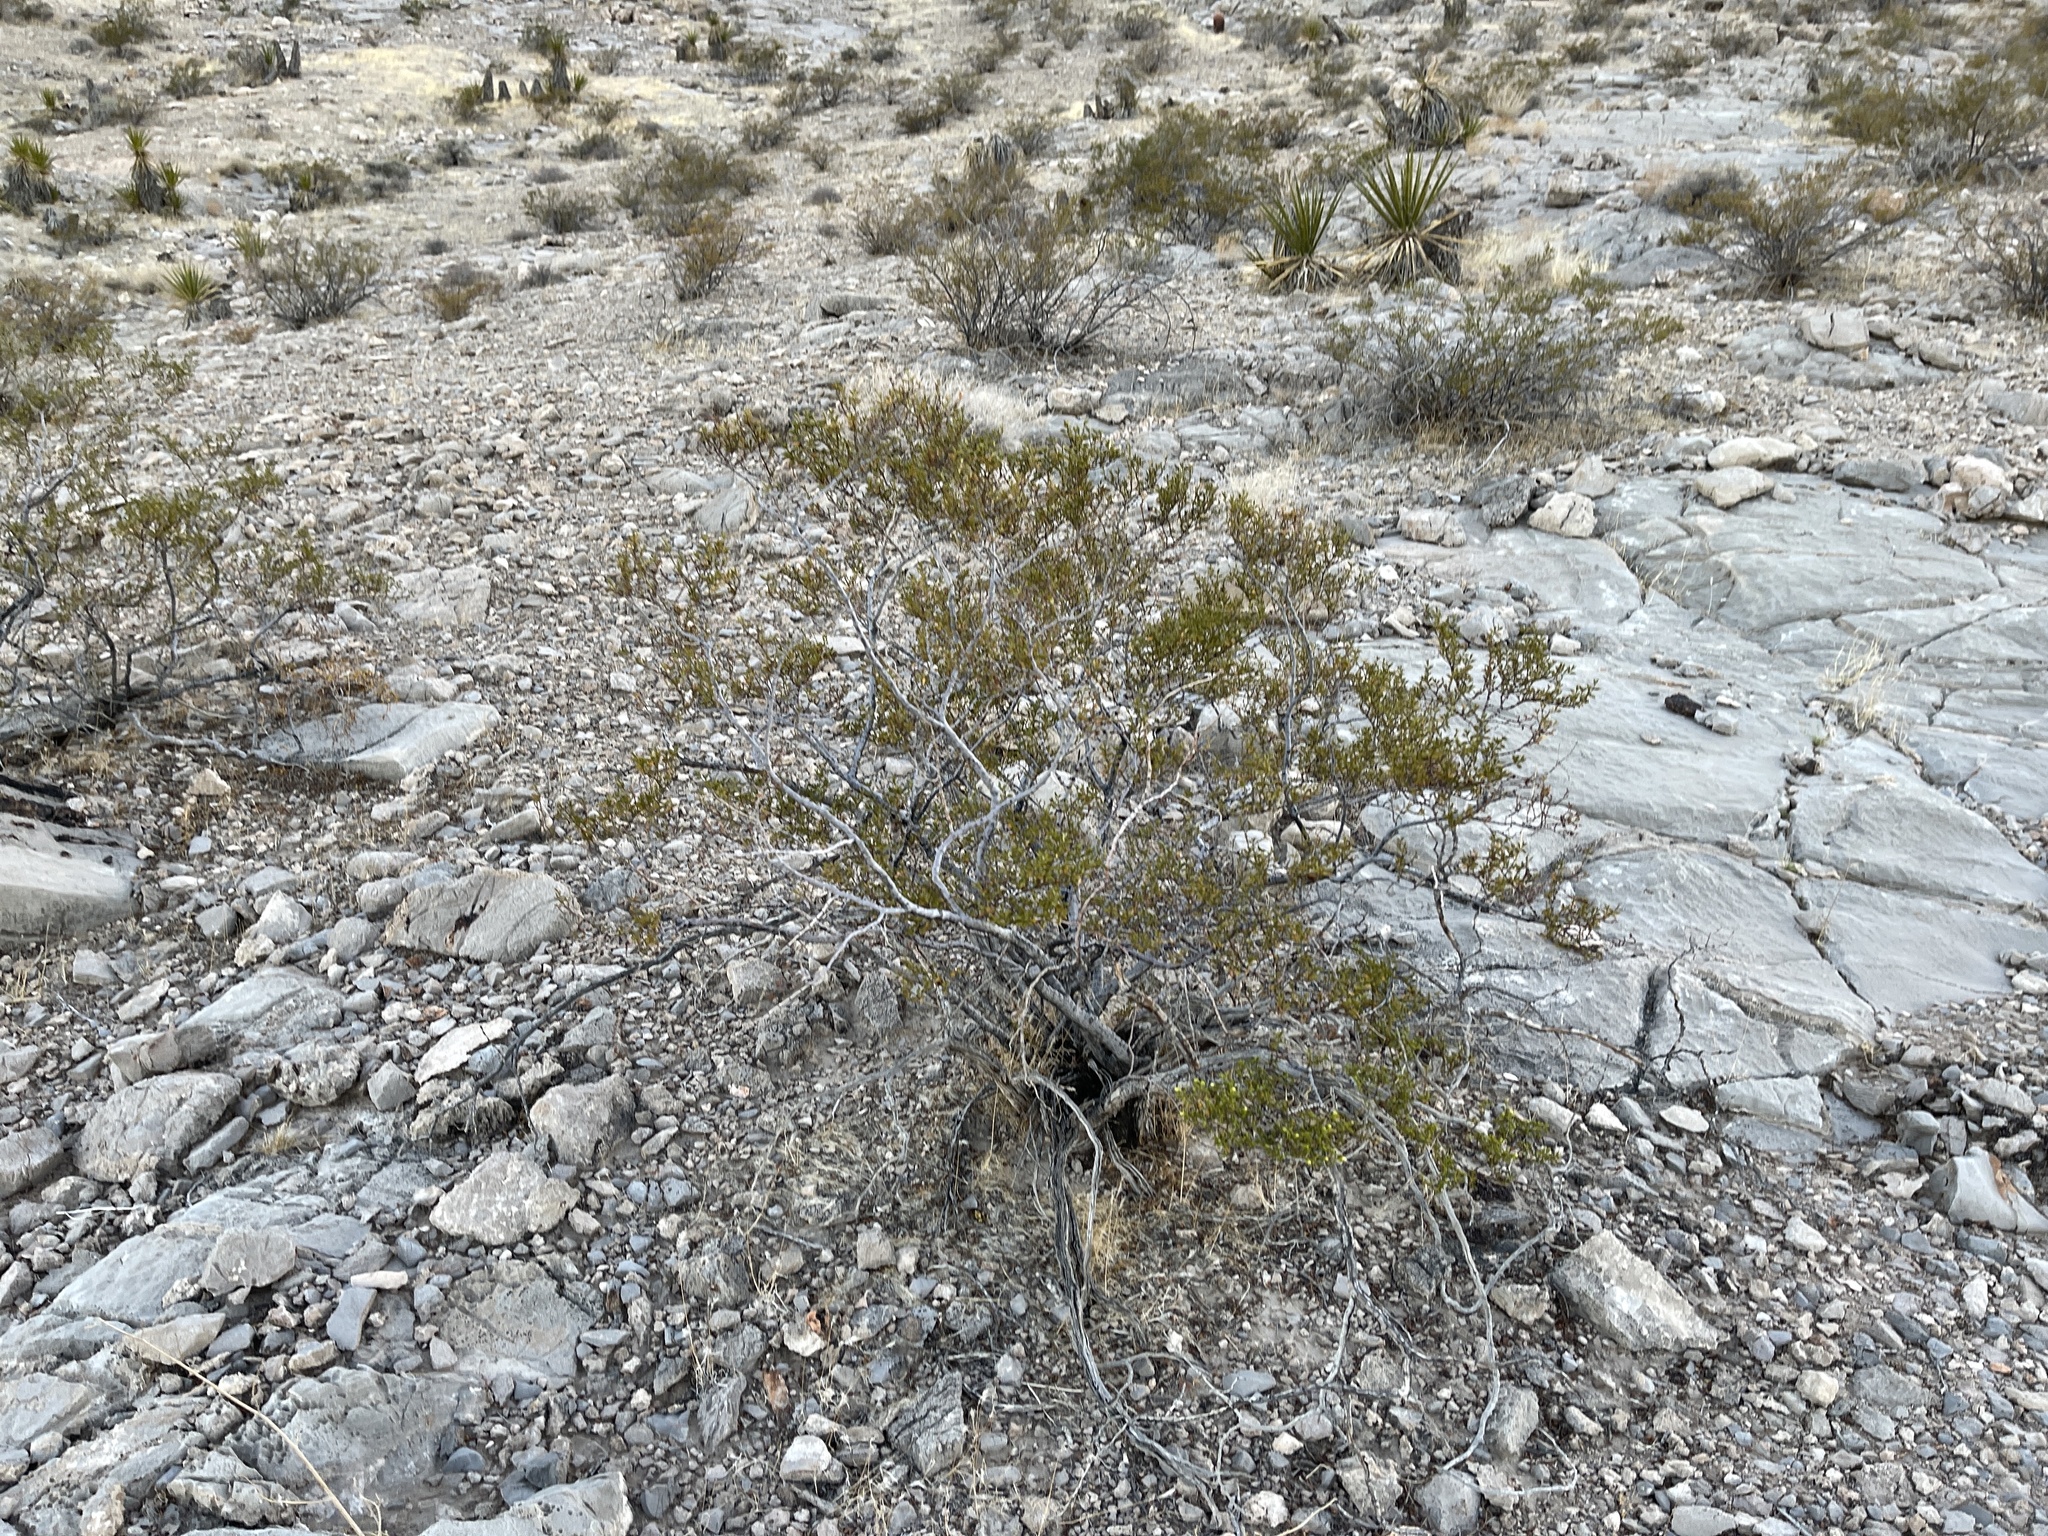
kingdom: Plantae
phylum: Tracheophyta
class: Magnoliopsida
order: Zygophyllales
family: Zygophyllaceae
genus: Larrea
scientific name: Larrea tridentata
